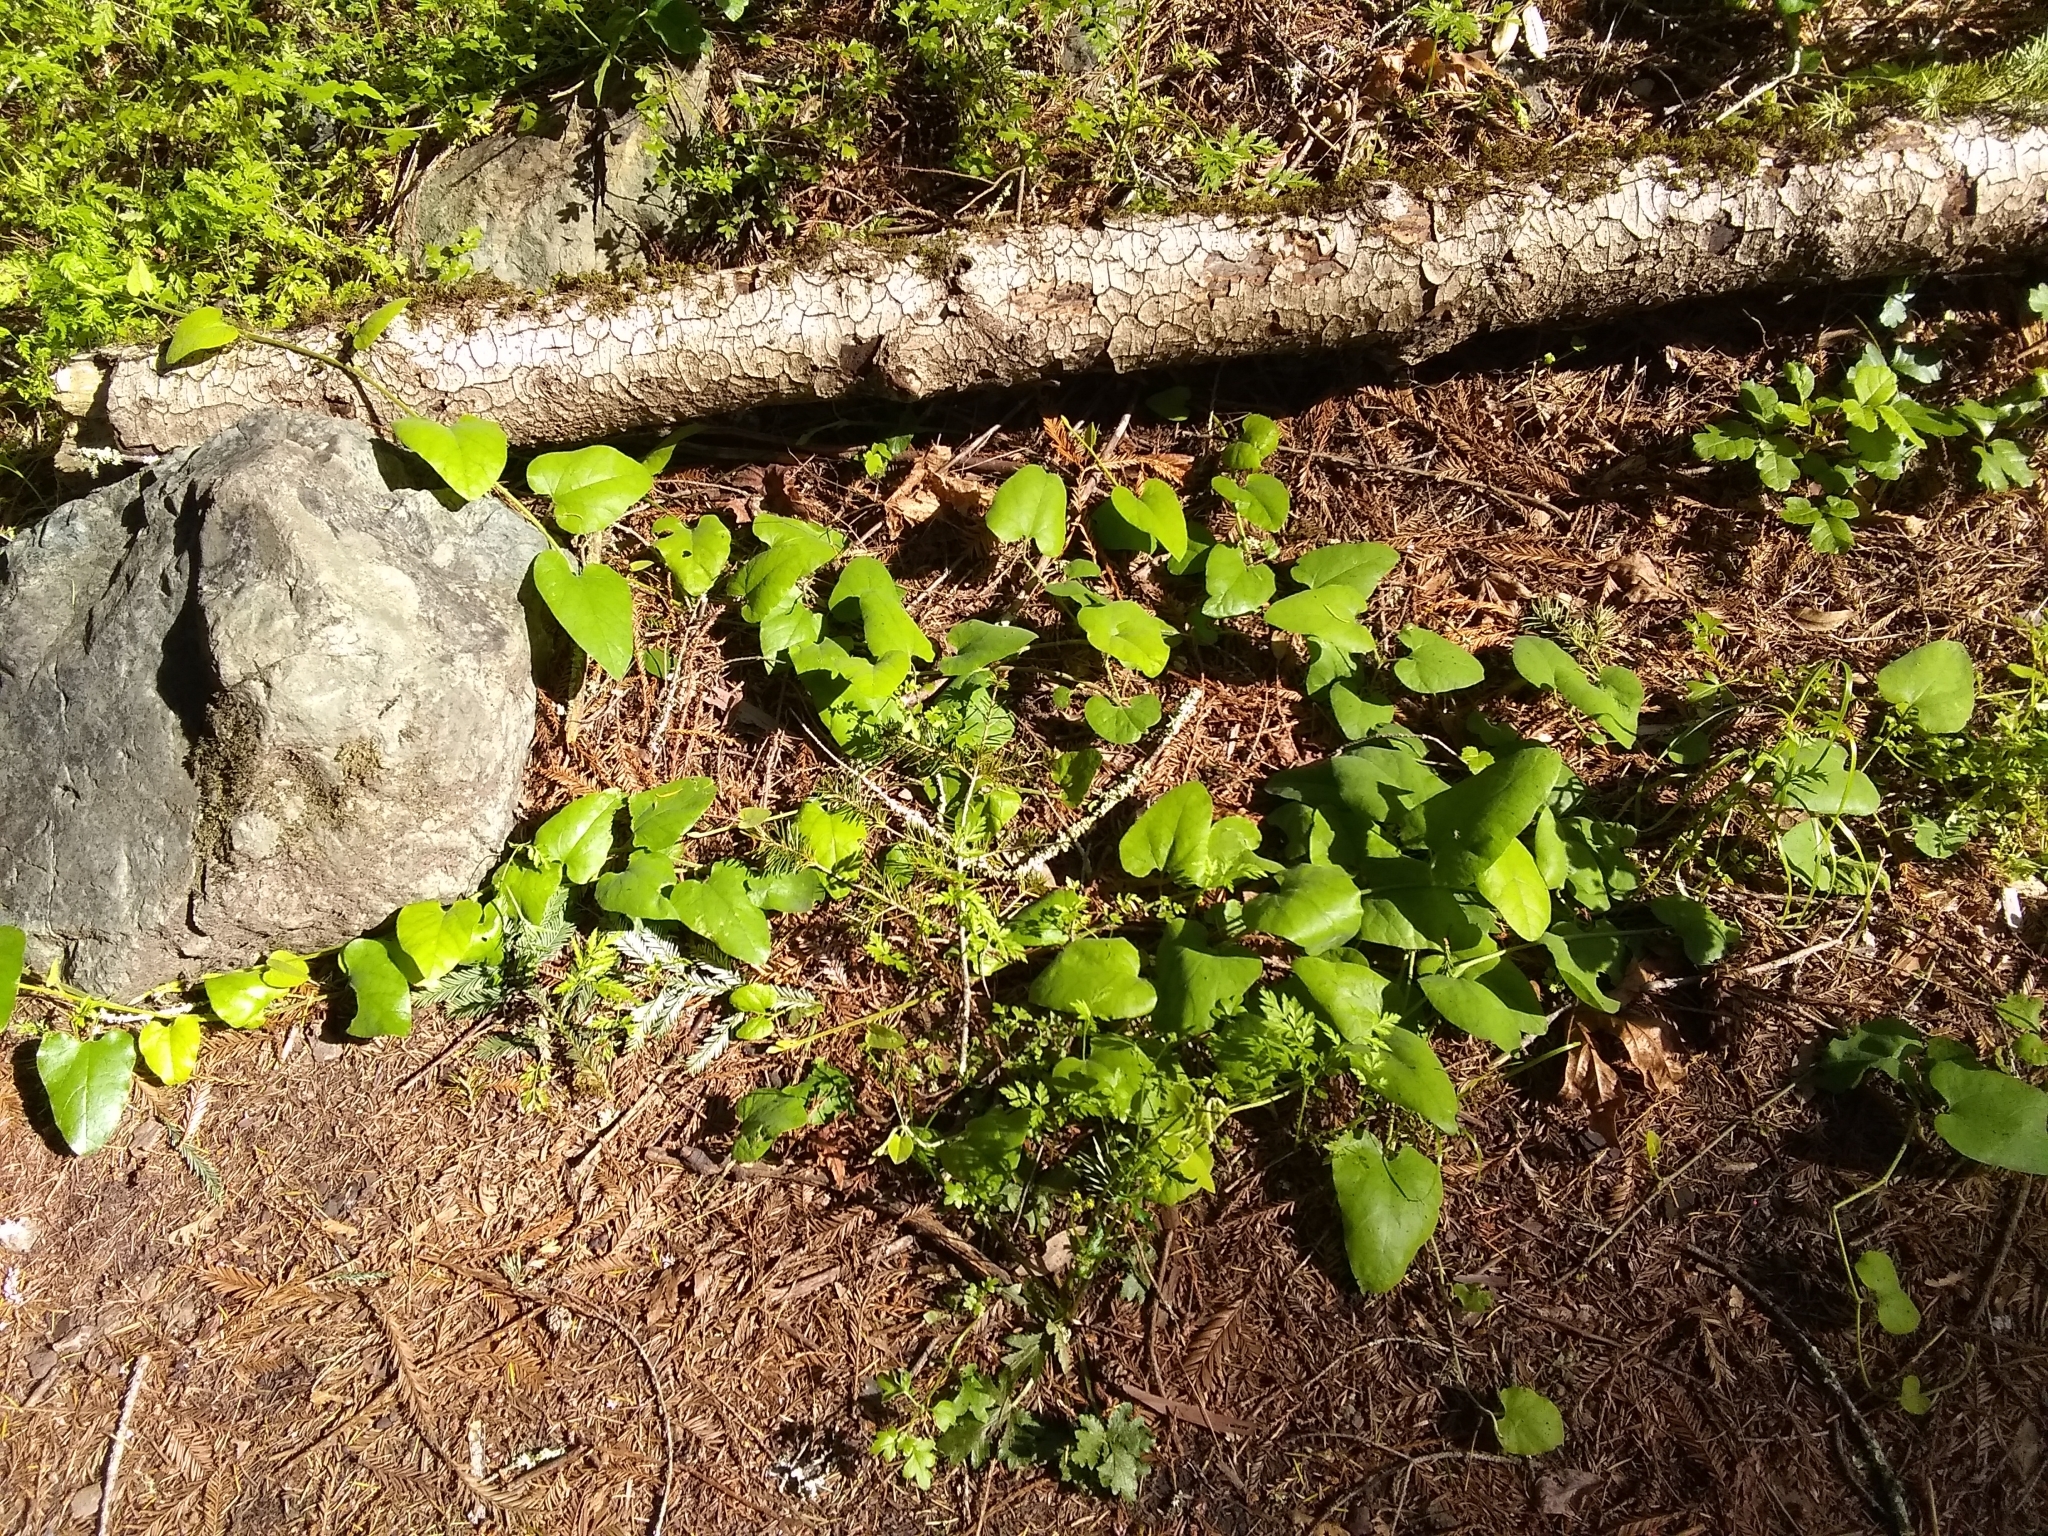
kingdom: Plantae
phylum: Tracheophyta
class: Magnoliopsida
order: Piperales
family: Aristolochiaceae
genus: Isotrema
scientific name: Isotrema californicum
